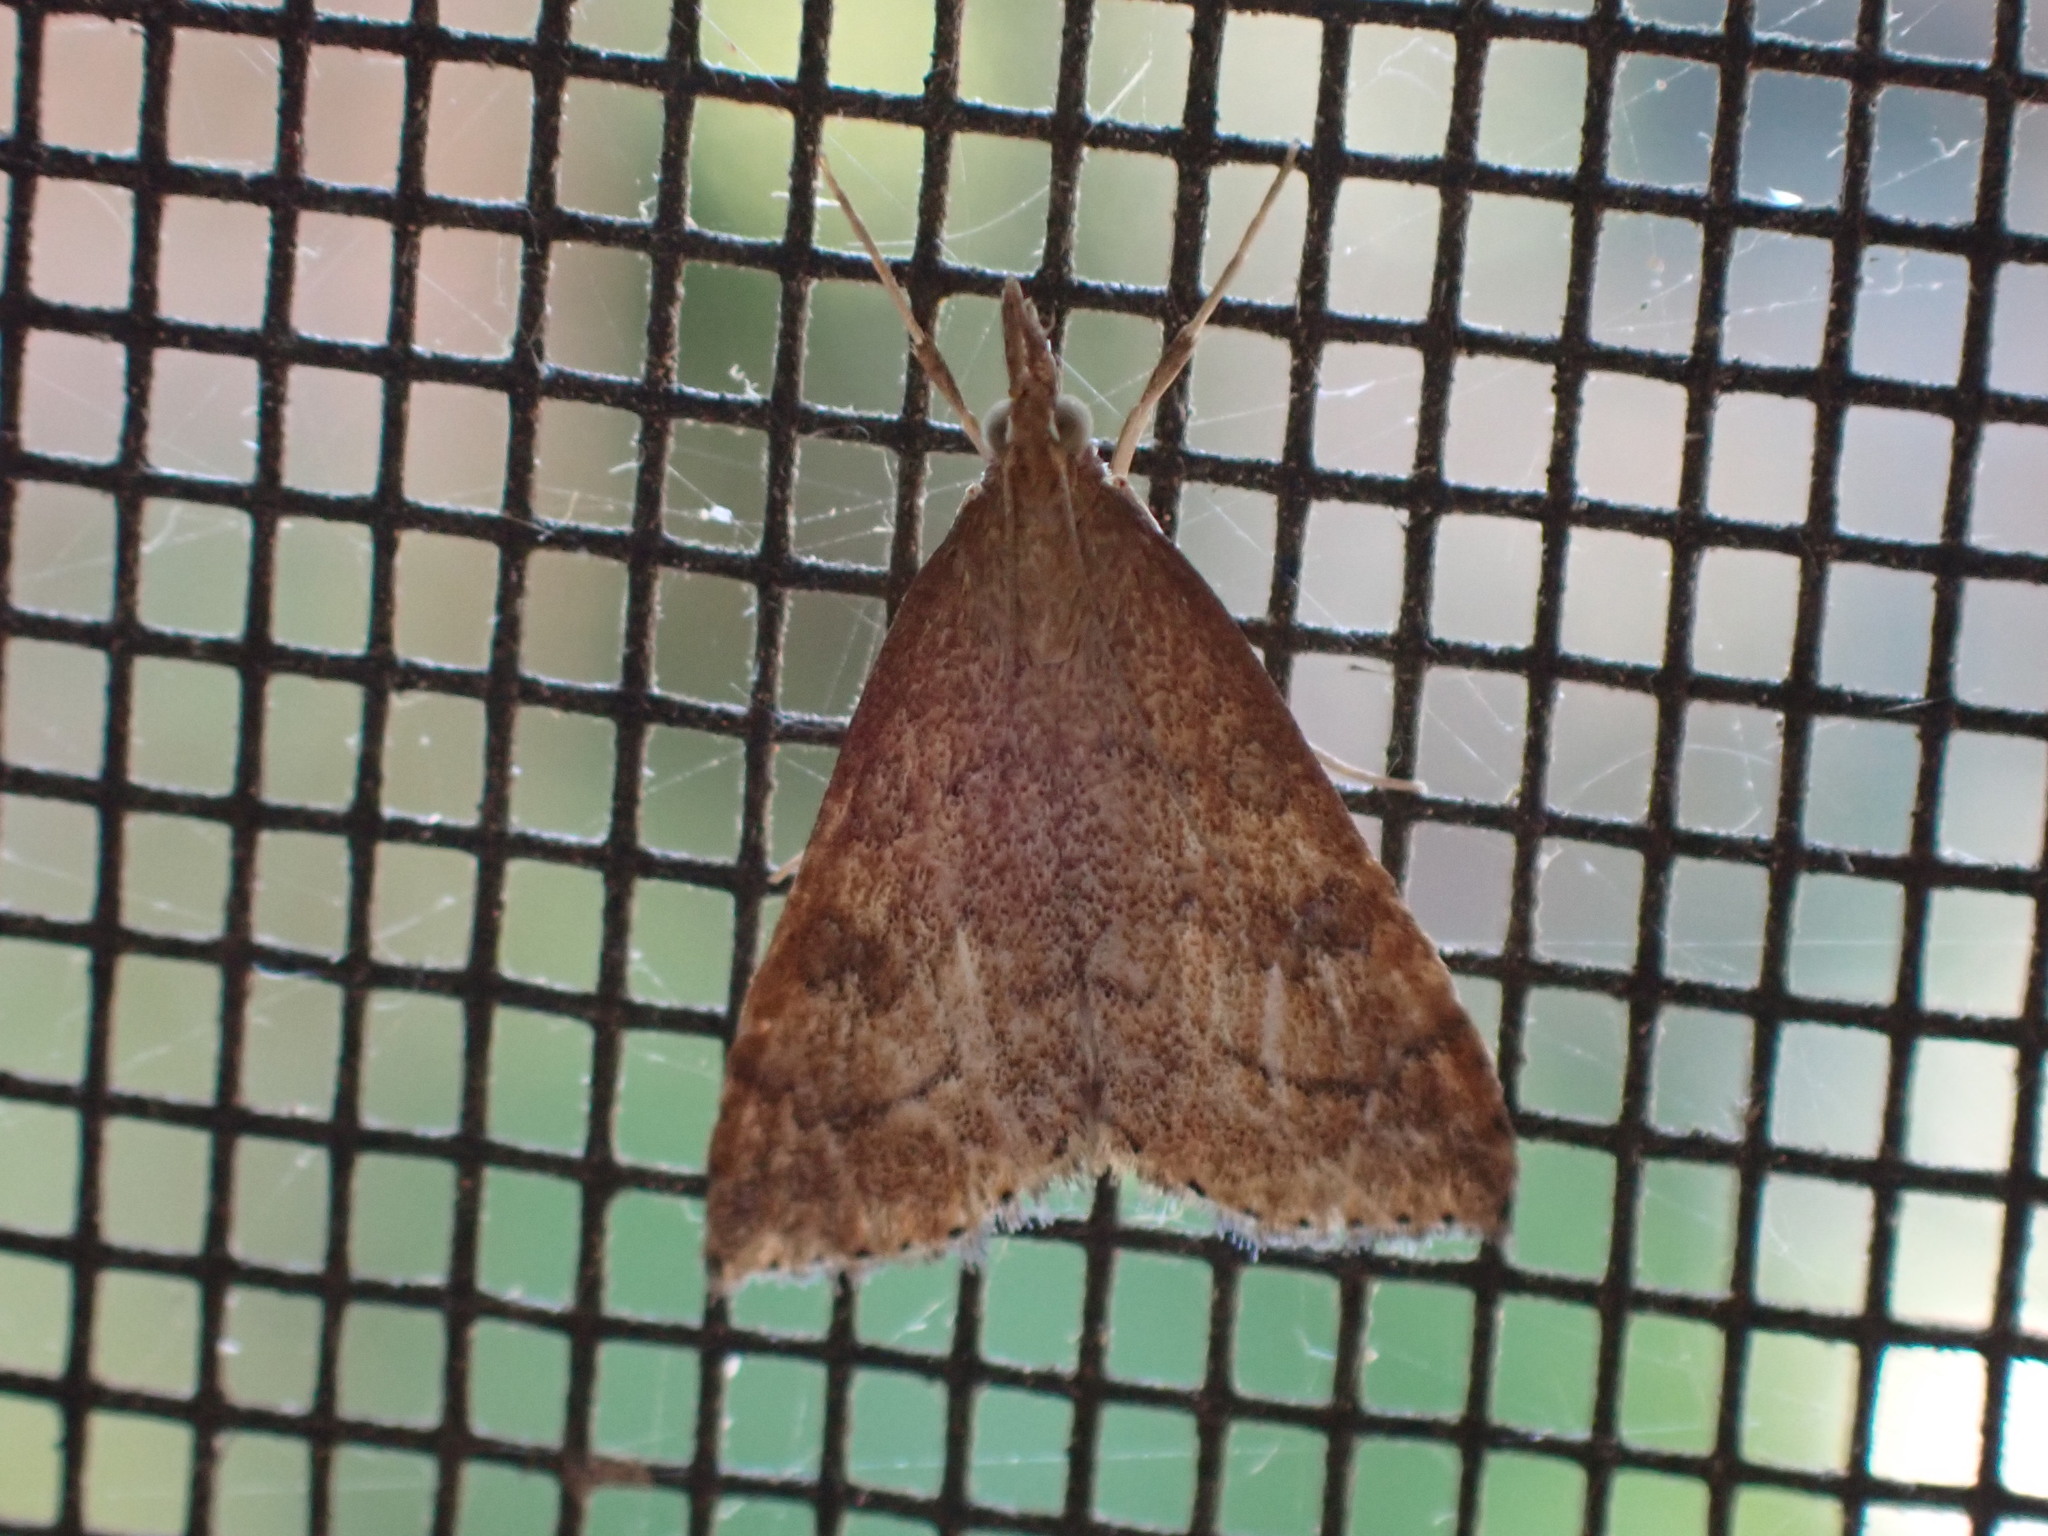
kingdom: Animalia
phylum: Arthropoda
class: Insecta
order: Lepidoptera
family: Crambidae
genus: Udea
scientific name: Udea rubigalis
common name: Celery leaftier moth
